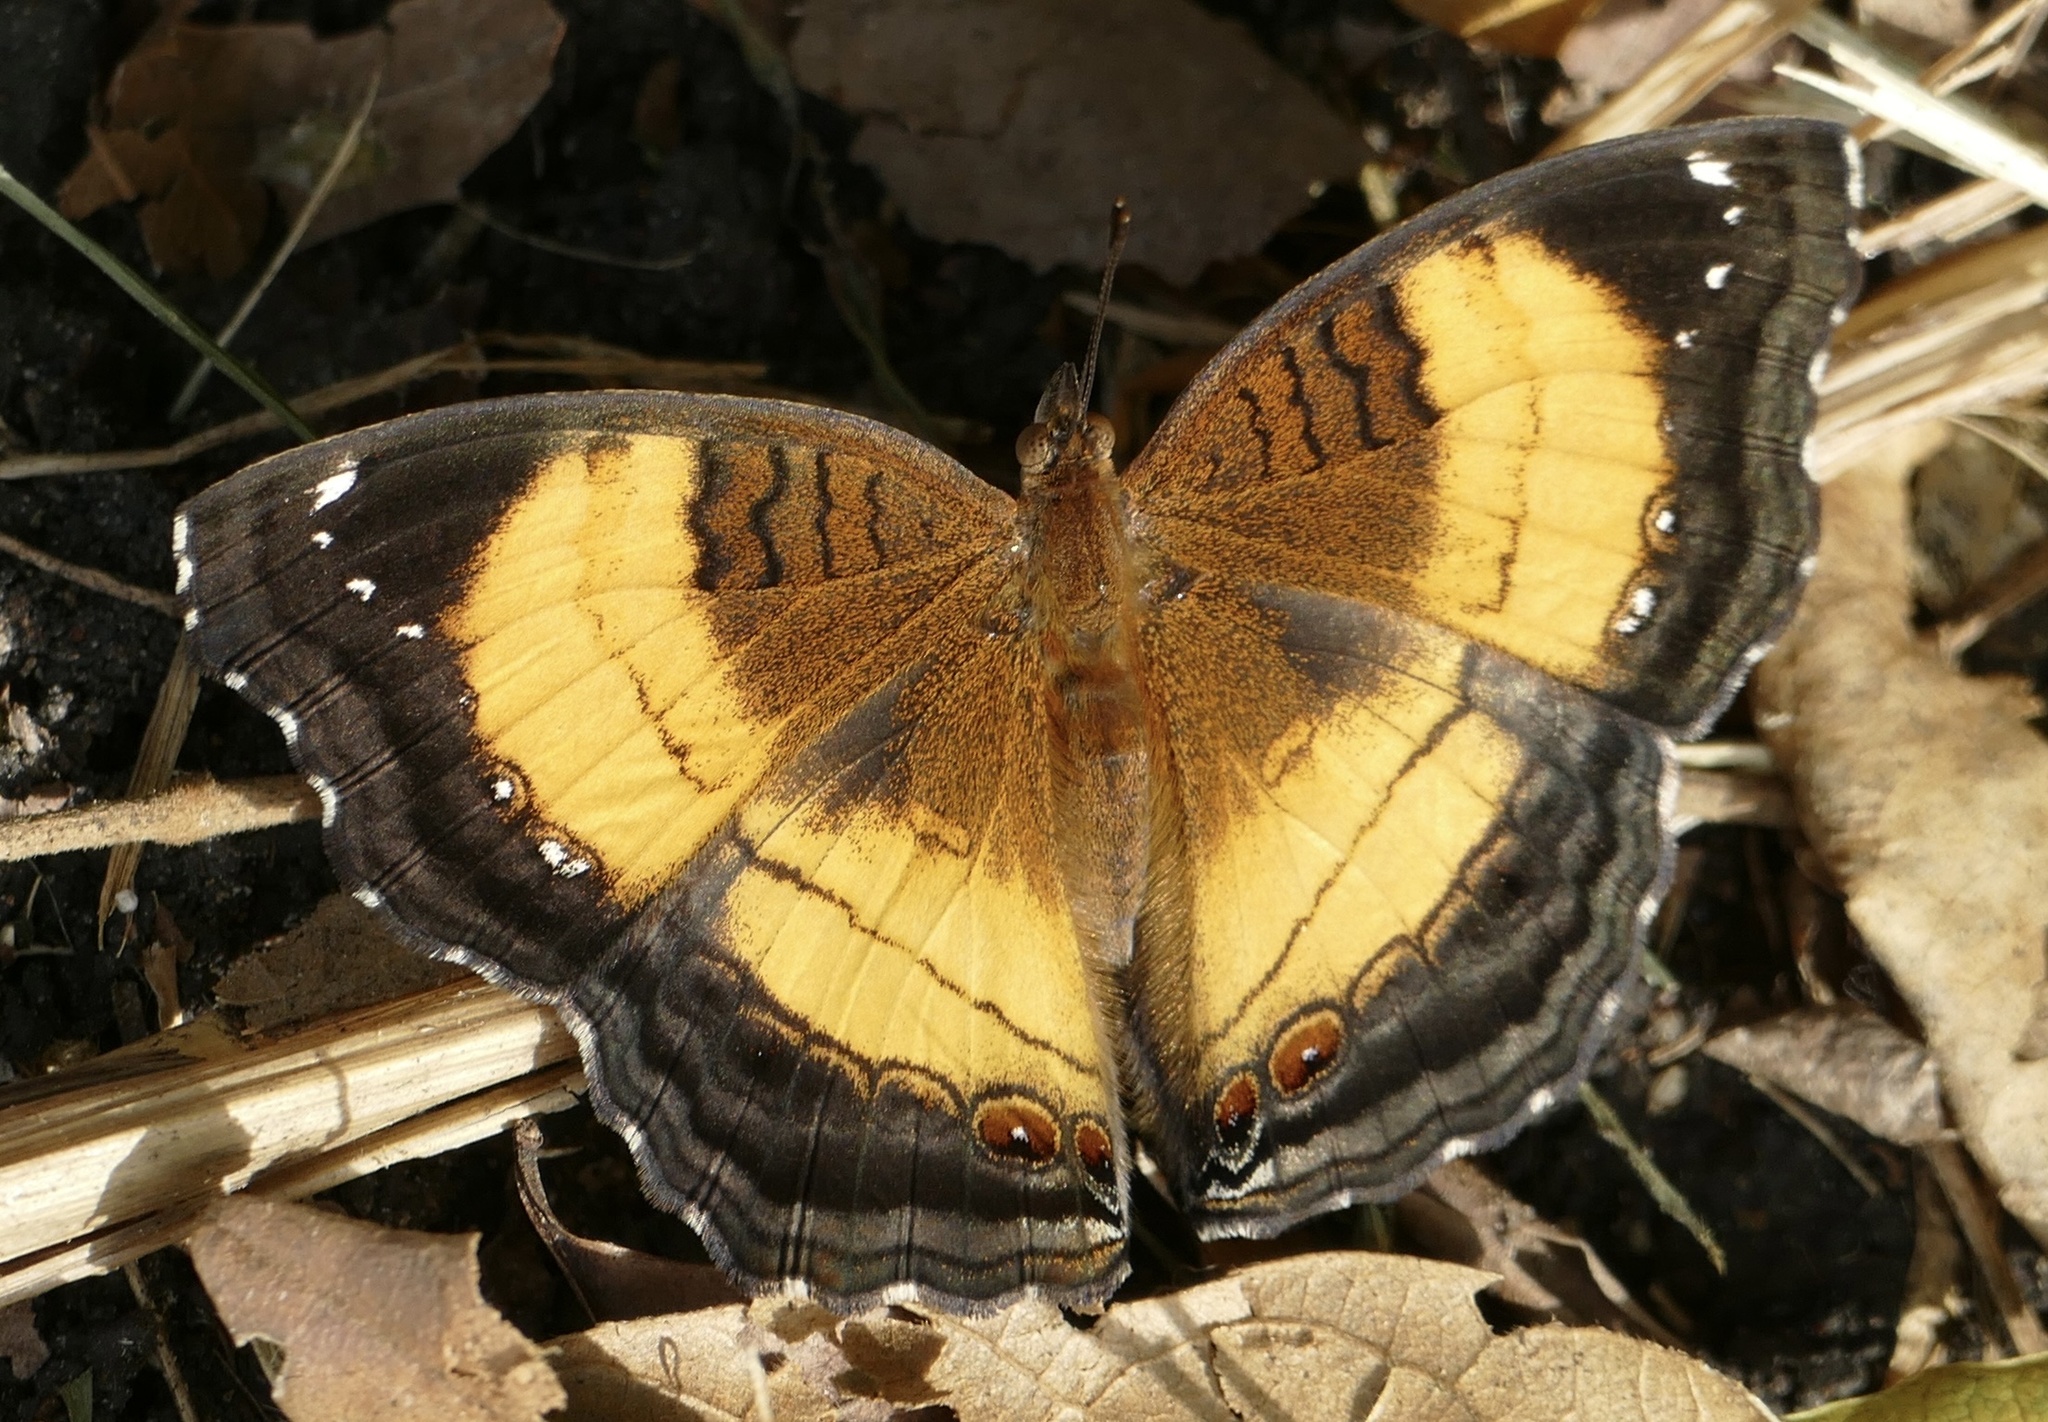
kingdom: Animalia
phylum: Arthropoda
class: Insecta
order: Lepidoptera
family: Nymphalidae
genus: Junonia
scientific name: Junonia terea
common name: Soldier pansy
